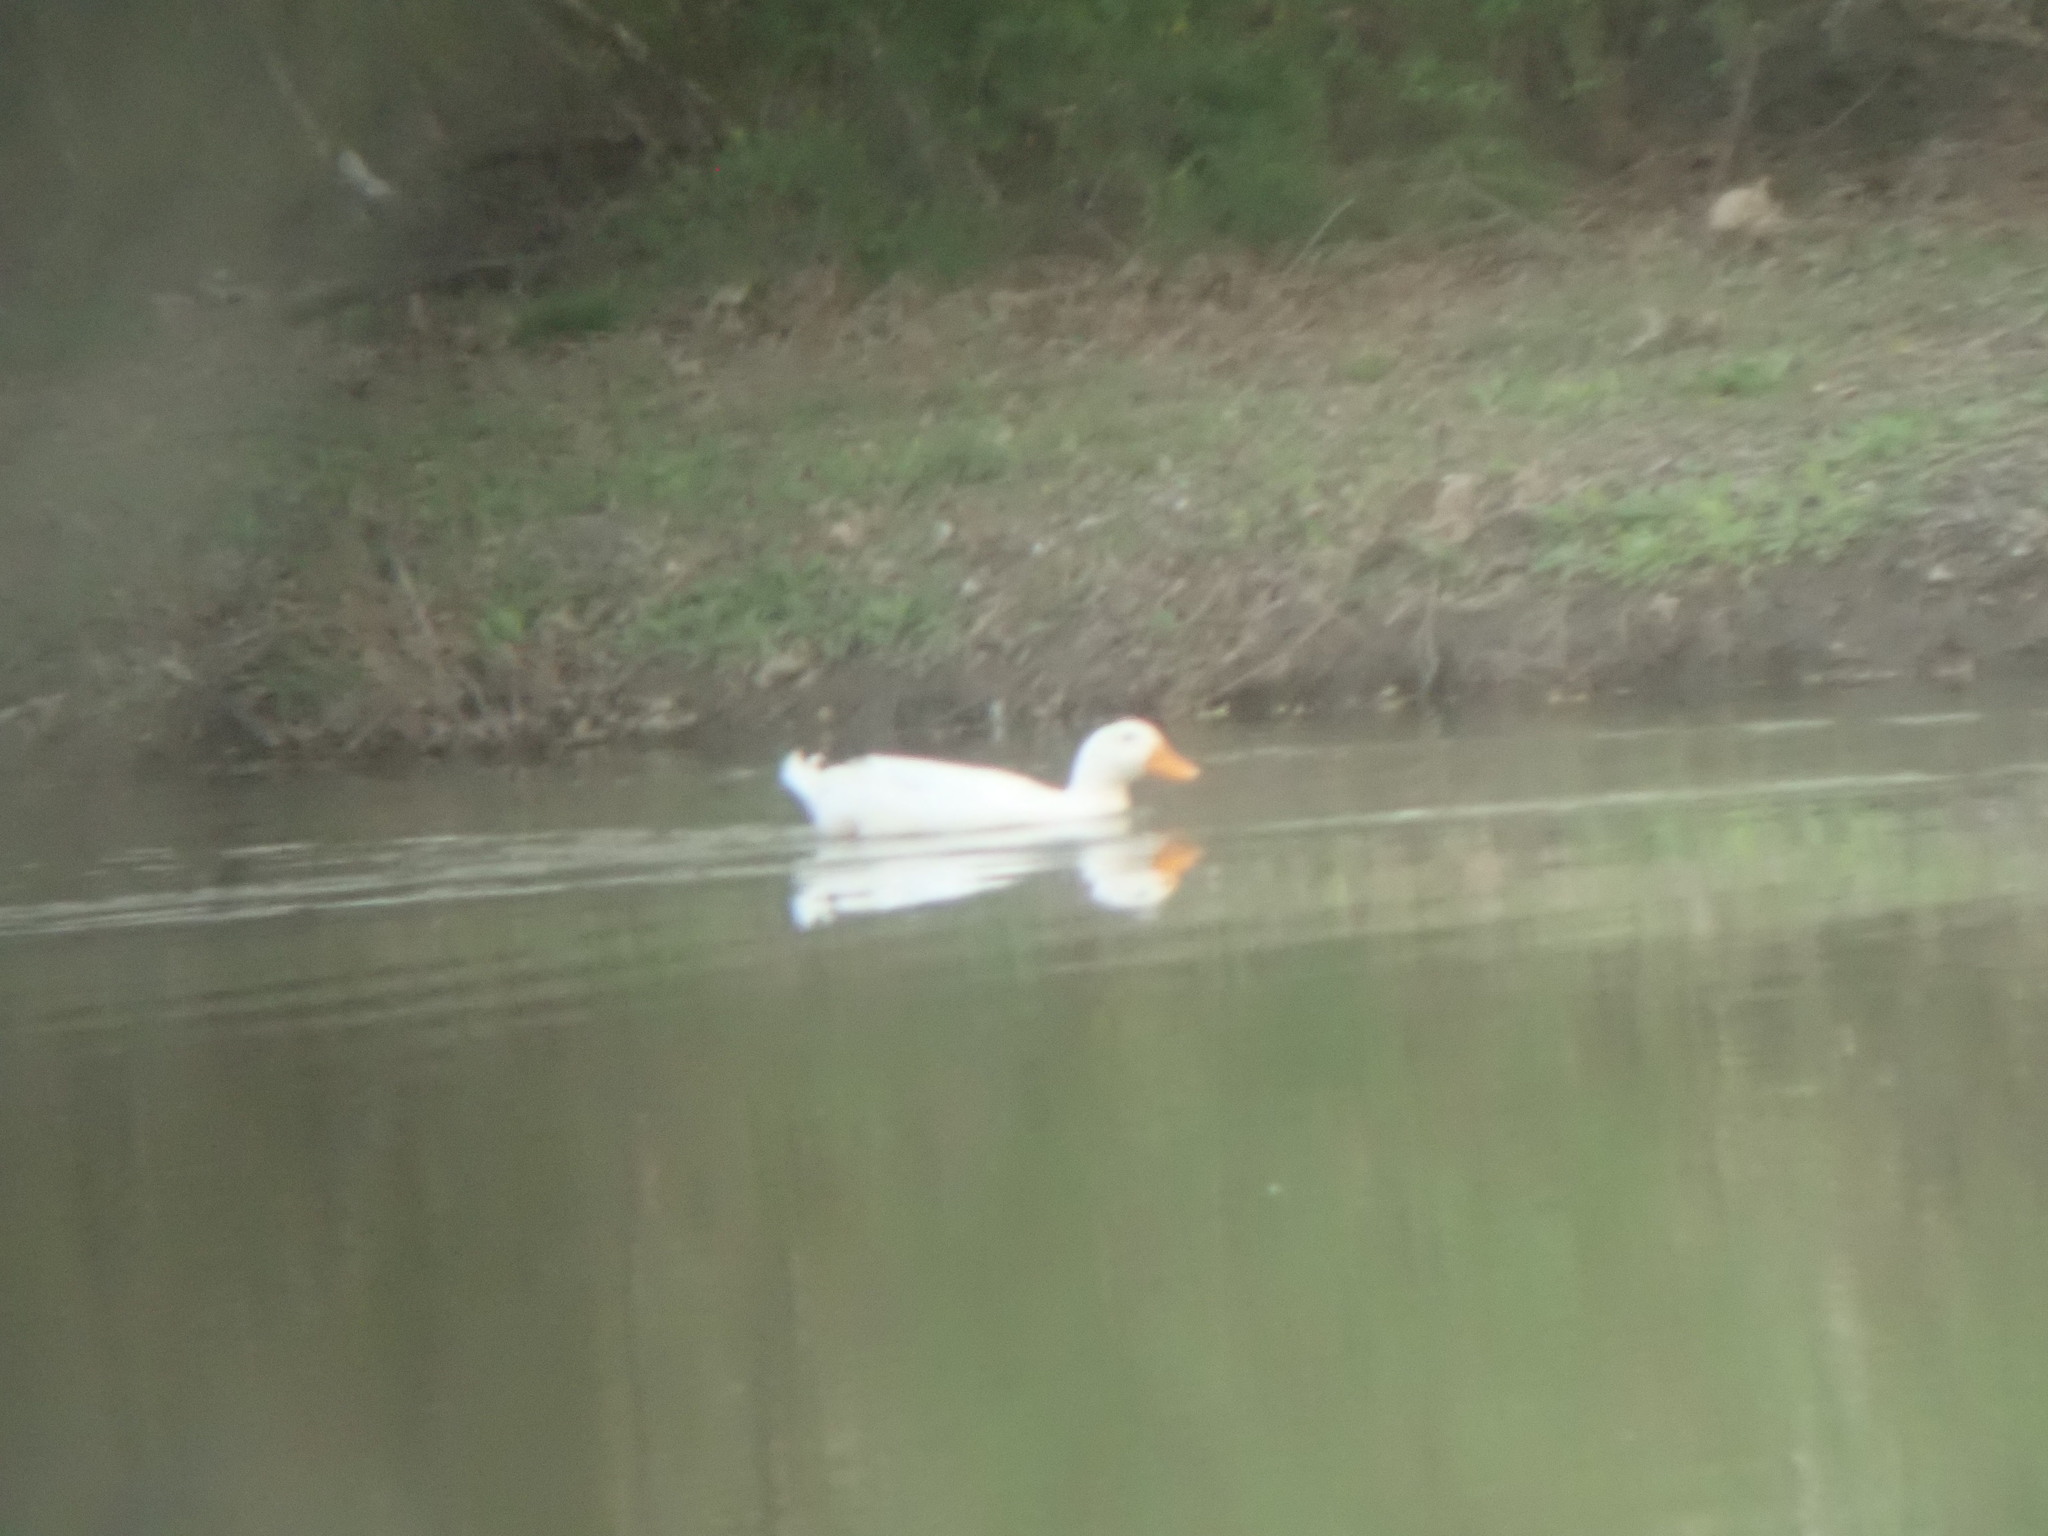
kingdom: Animalia
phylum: Chordata
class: Aves
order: Anseriformes
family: Anatidae
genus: Anas
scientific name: Anas platyrhynchos
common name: Mallard
